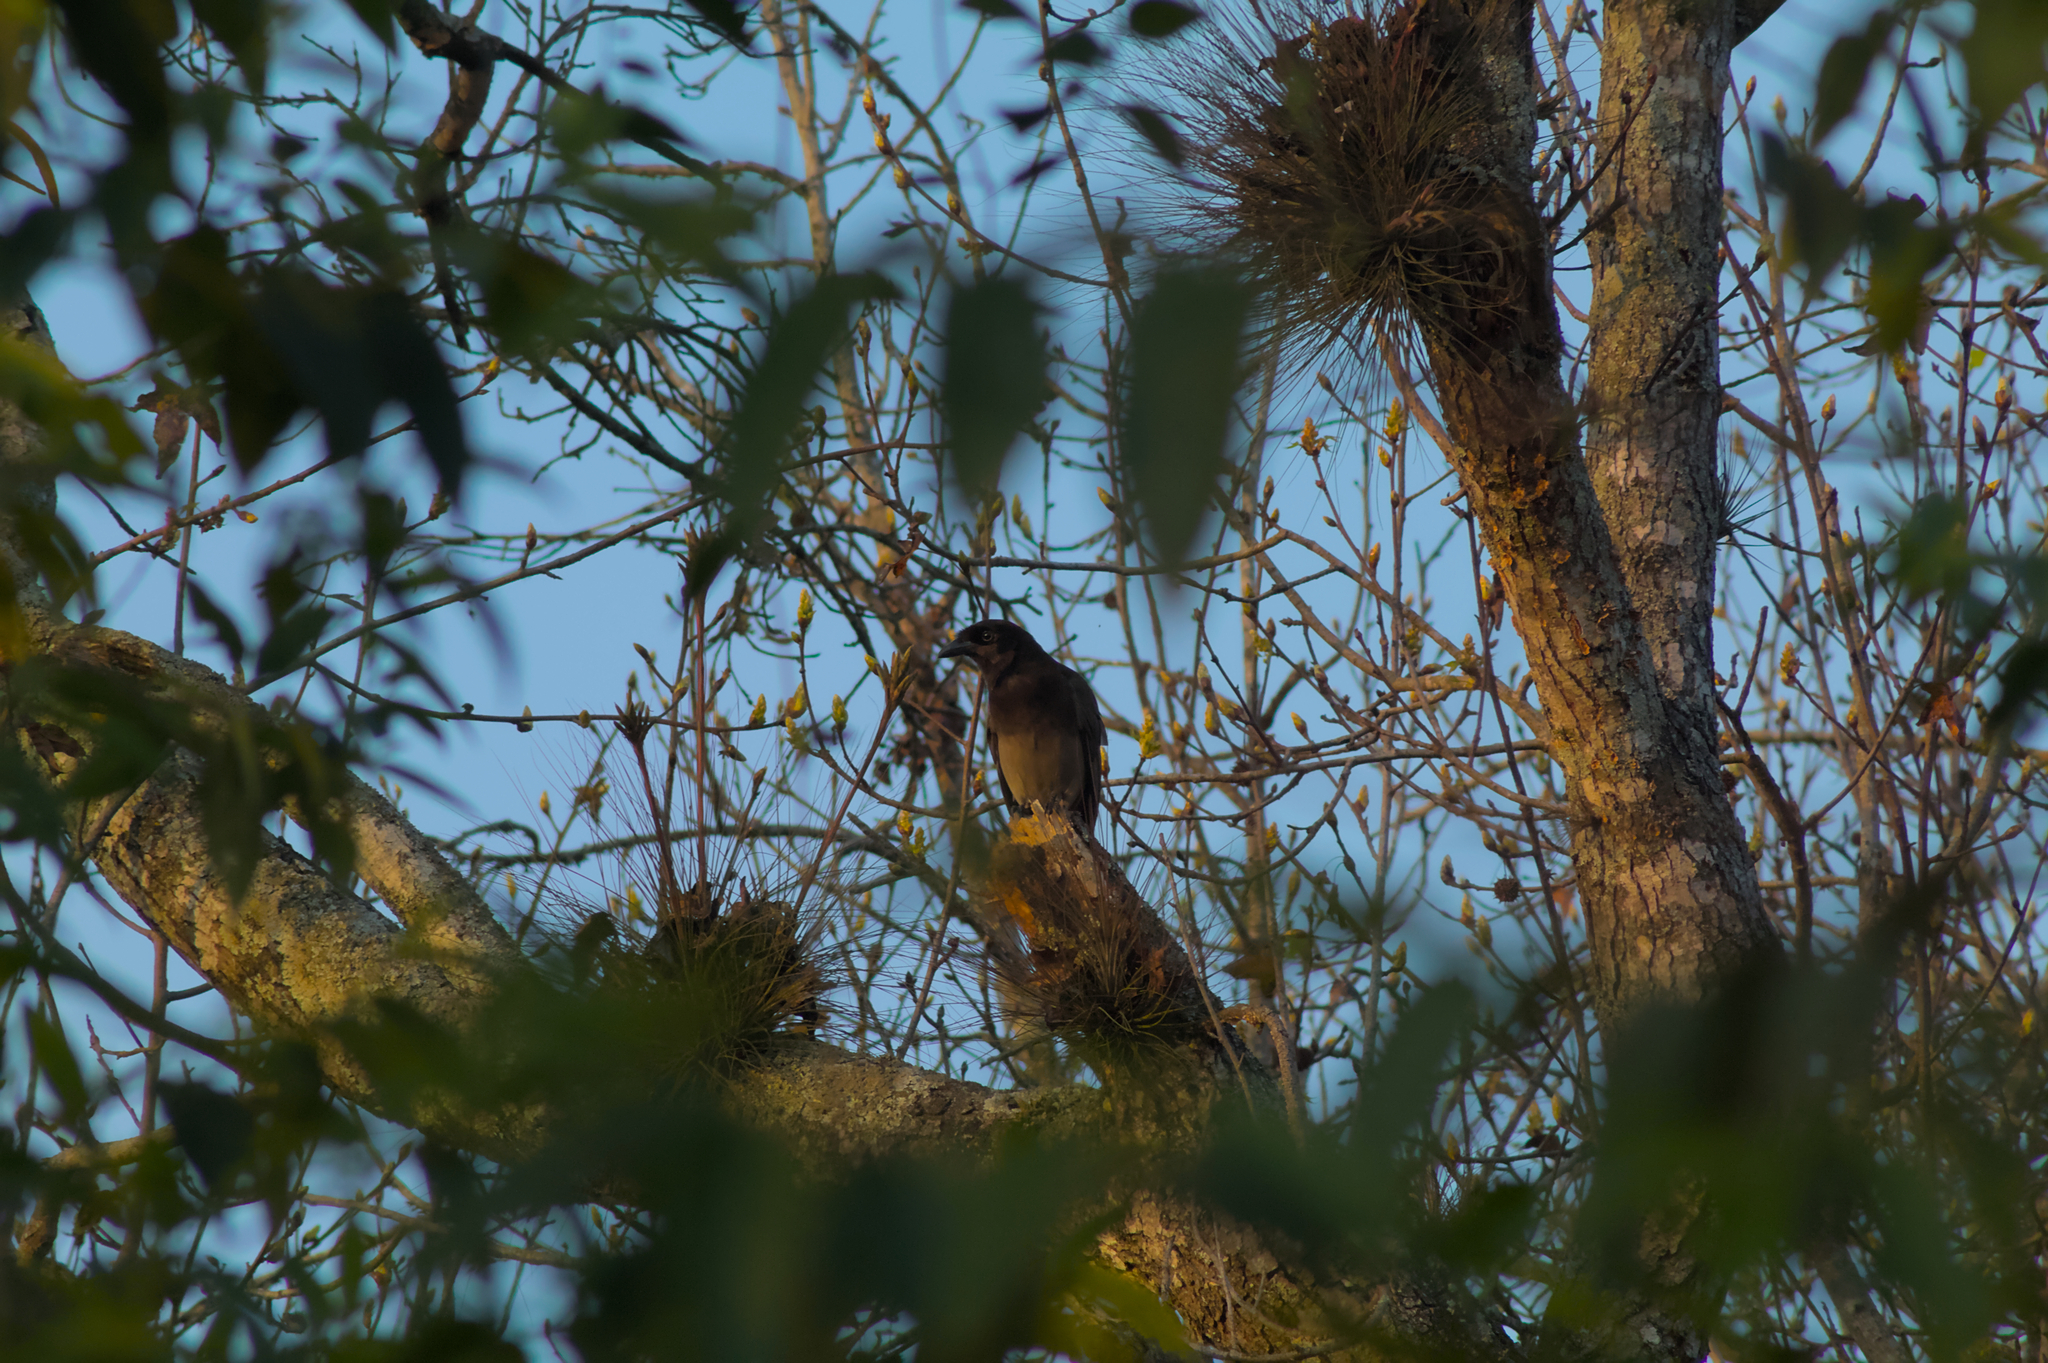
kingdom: Animalia
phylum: Chordata
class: Aves
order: Passeriformes
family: Corvidae
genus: Psilorhinus
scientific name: Psilorhinus morio
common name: Brown jay
